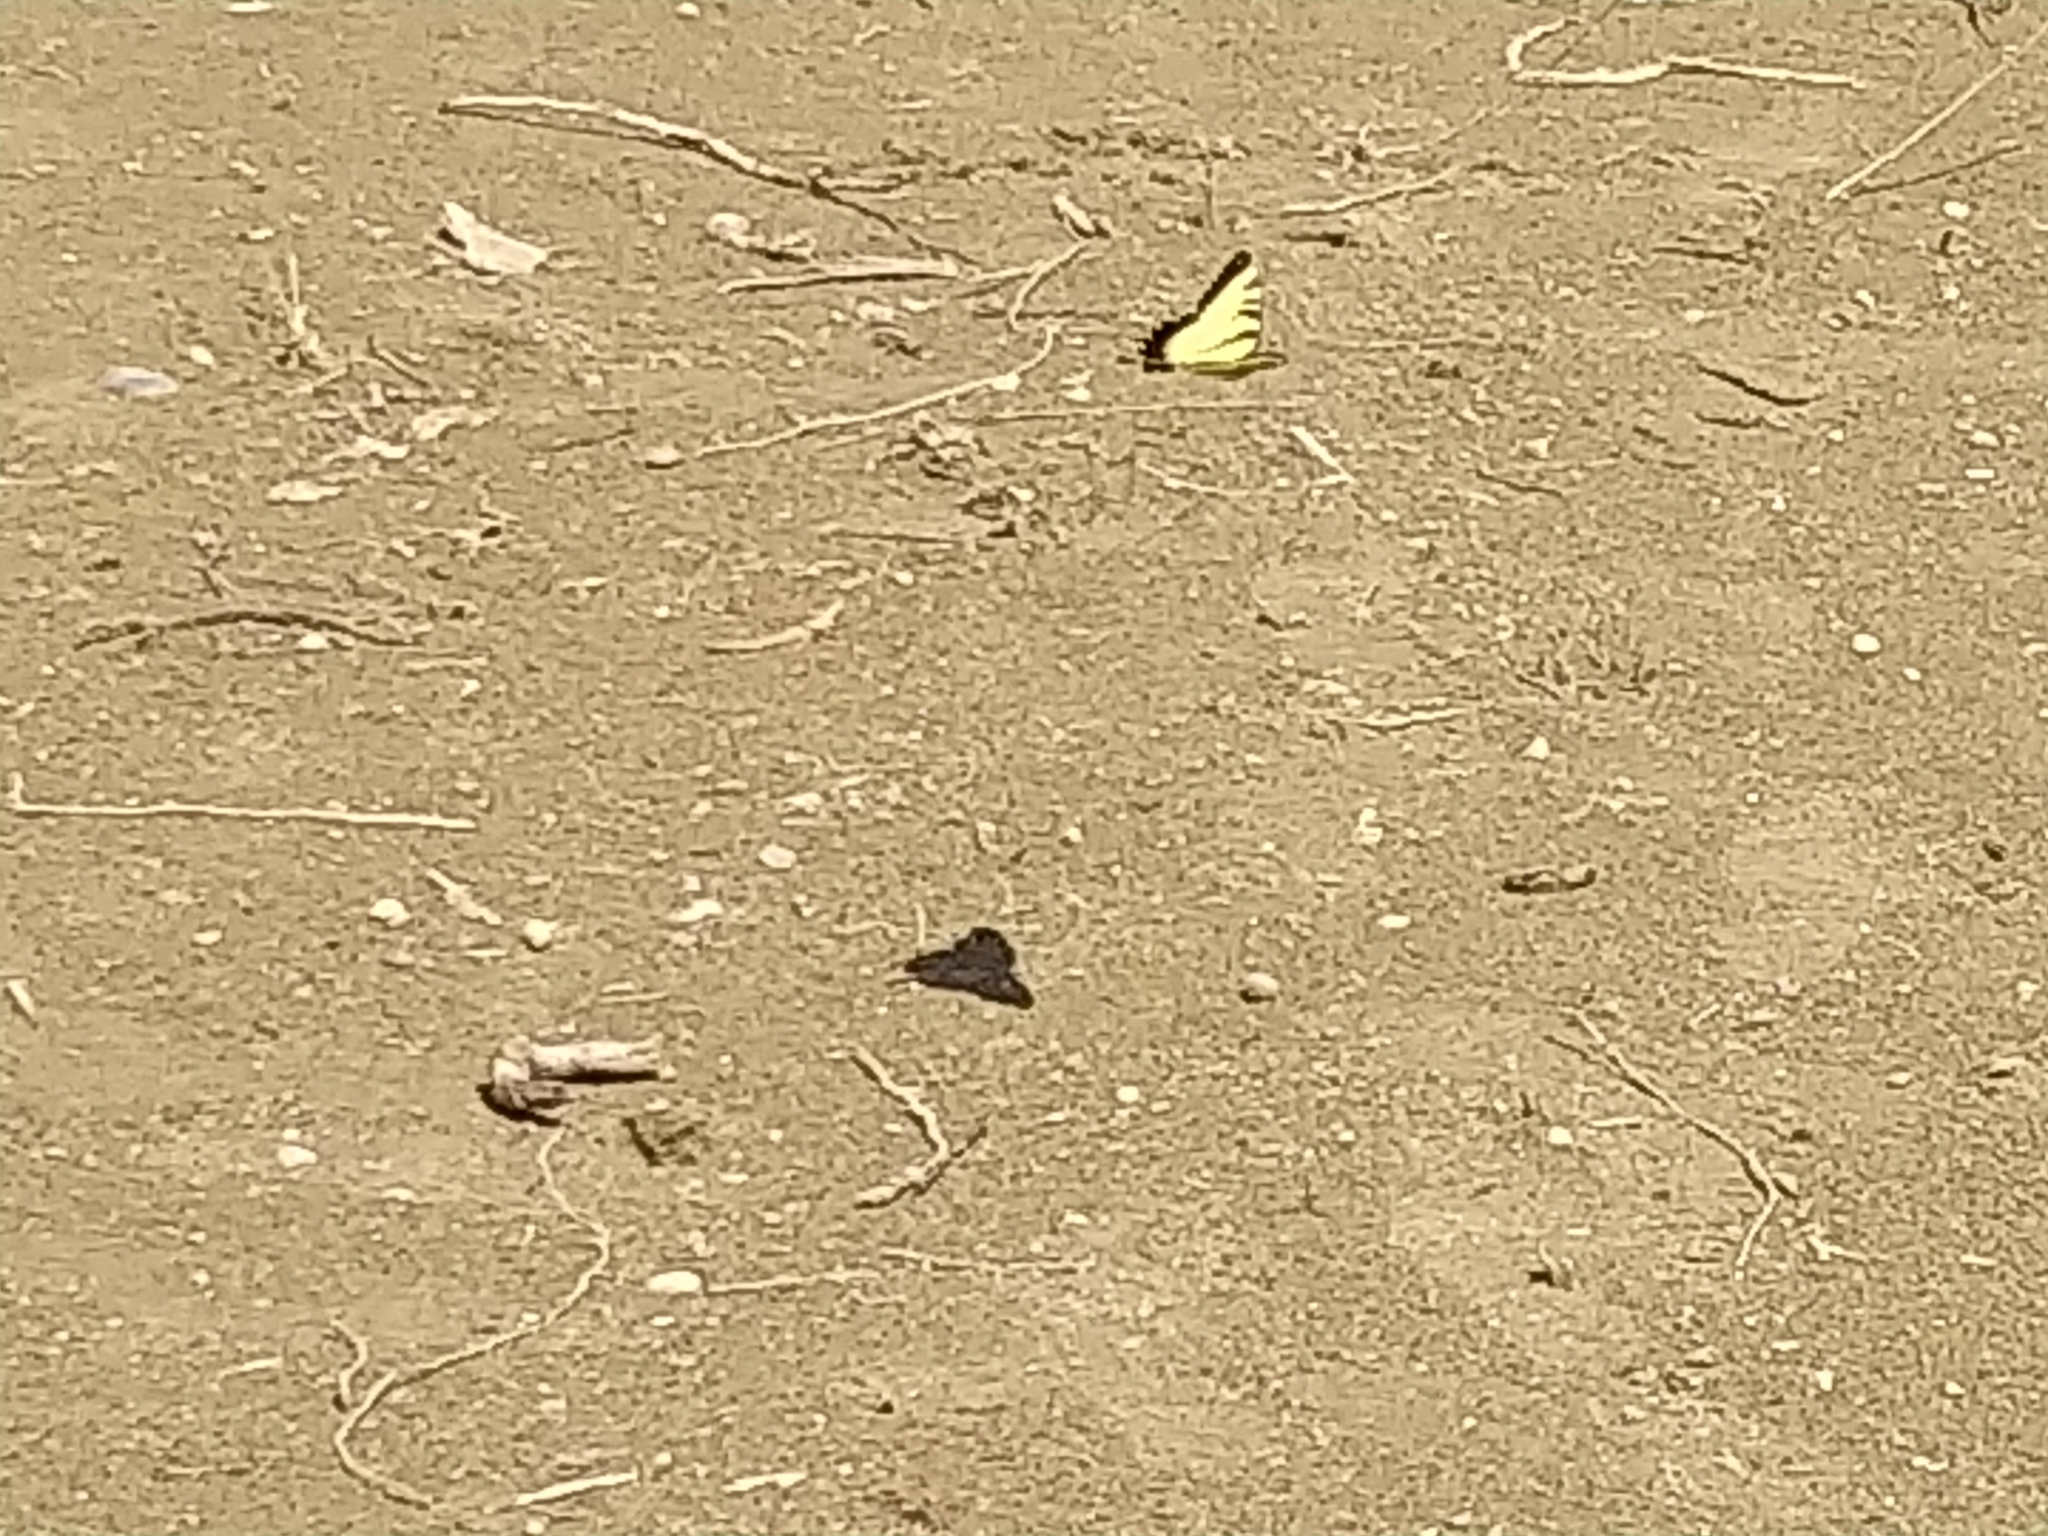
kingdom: Animalia
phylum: Arthropoda
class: Insecta
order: Lepidoptera
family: Papilionidae
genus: Papilio
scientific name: Papilio glaucus
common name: Tiger swallowtail
